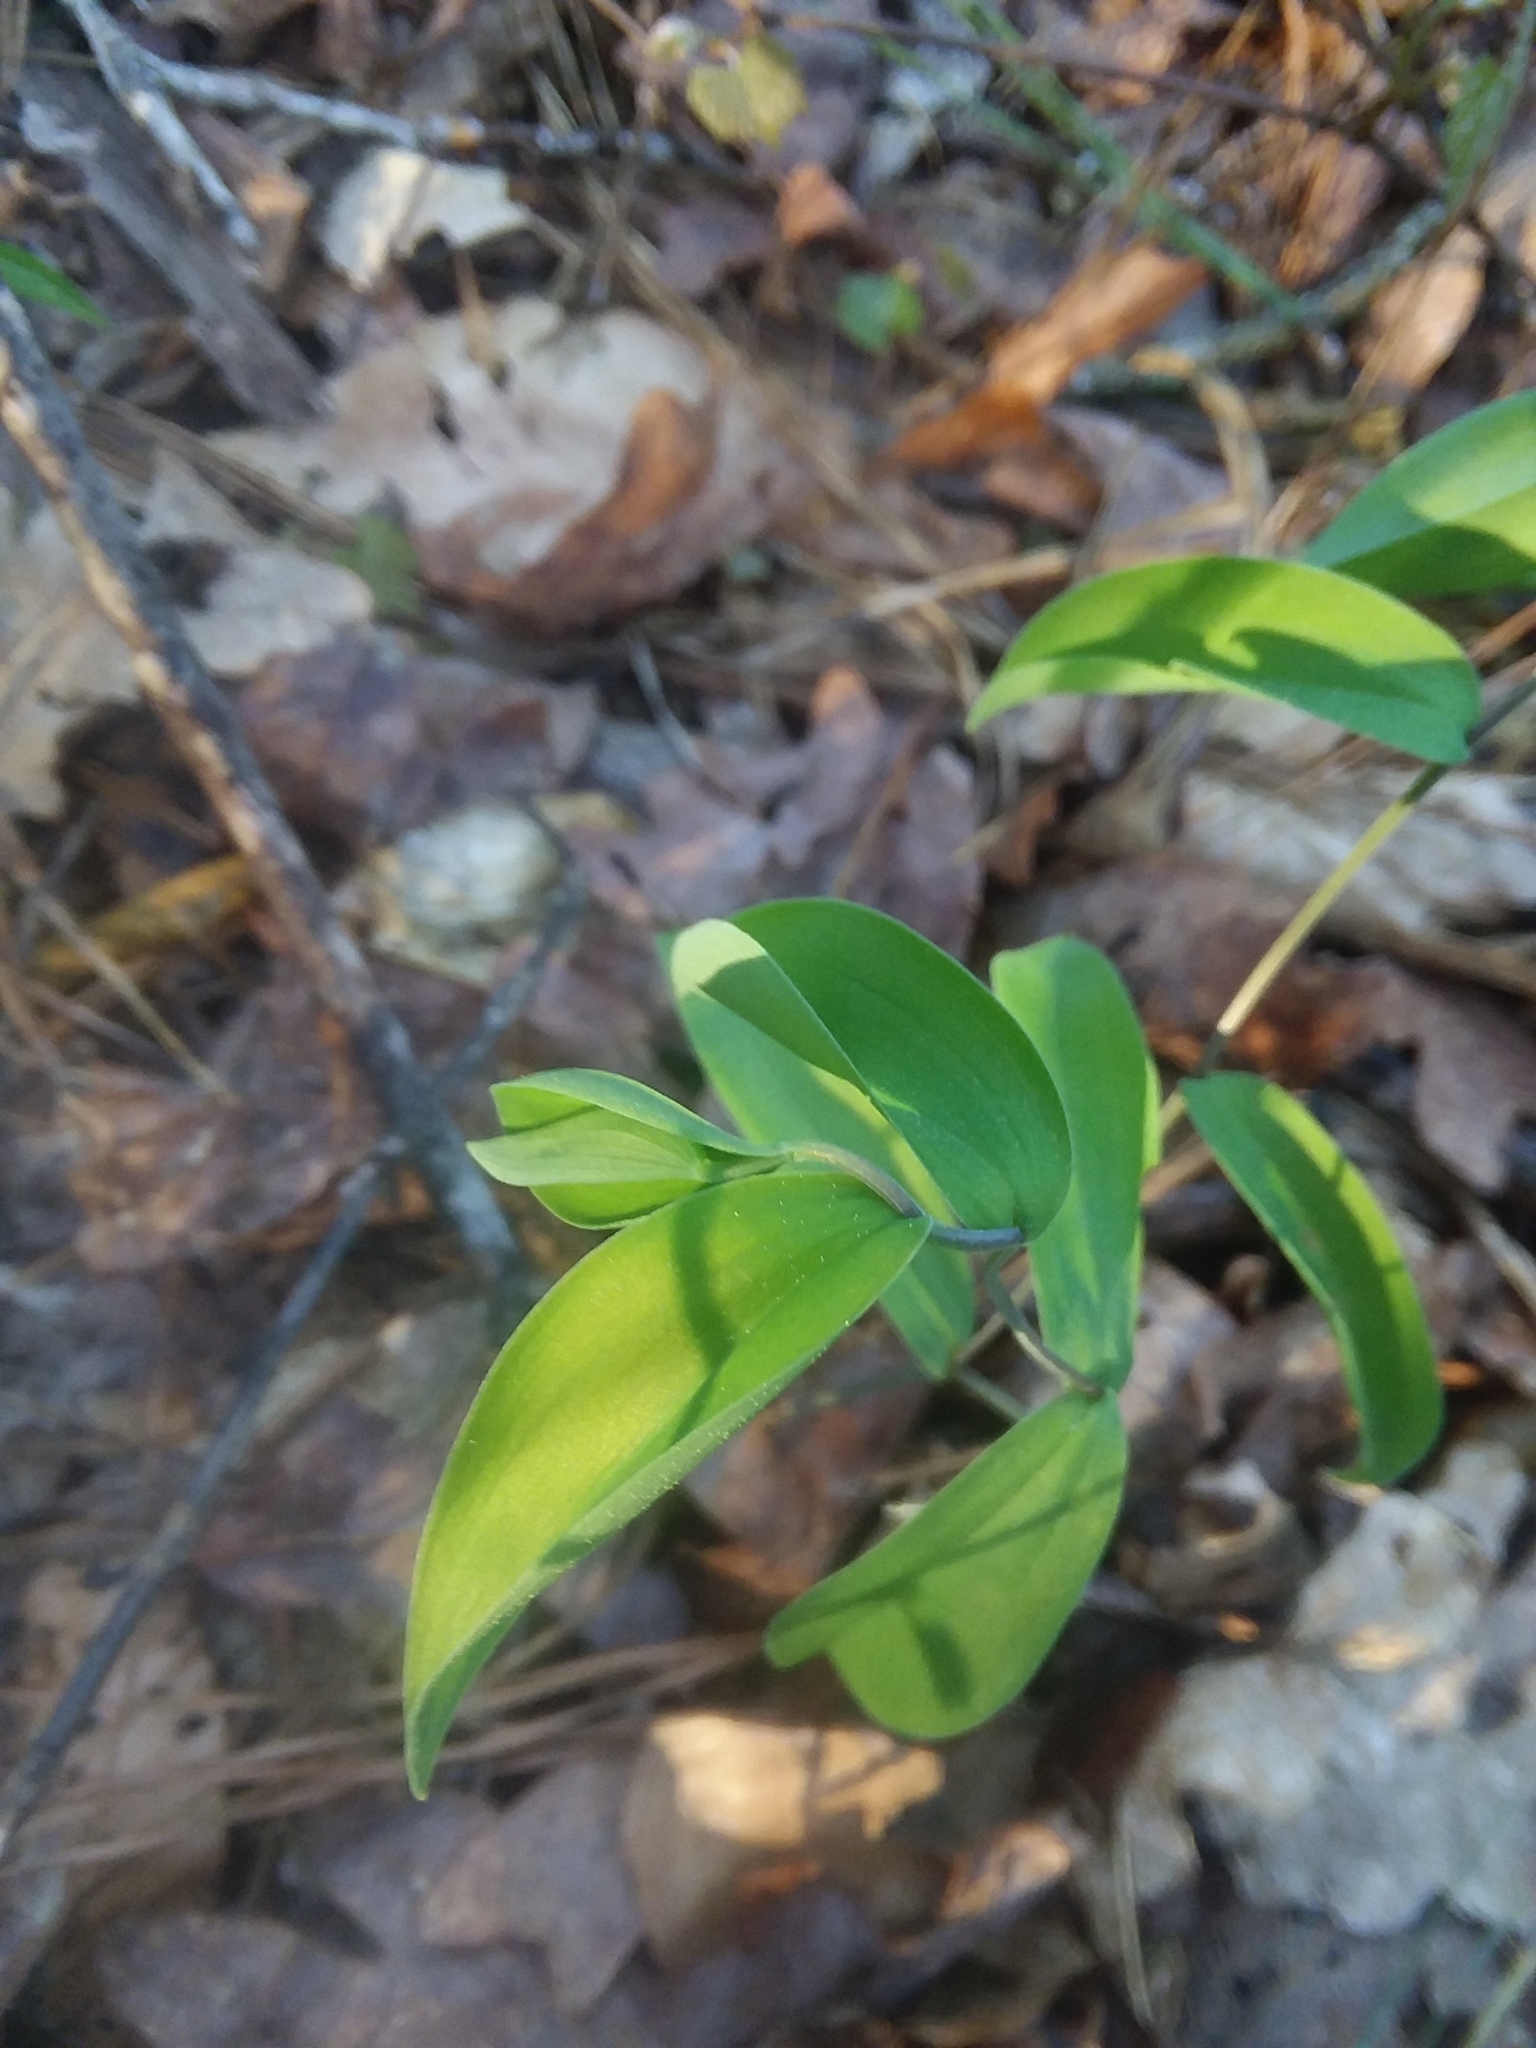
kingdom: Plantae
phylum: Tracheophyta
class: Liliopsida
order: Liliales
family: Colchicaceae
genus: Uvularia
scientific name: Uvularia sessilifolia
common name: Straw-lily
